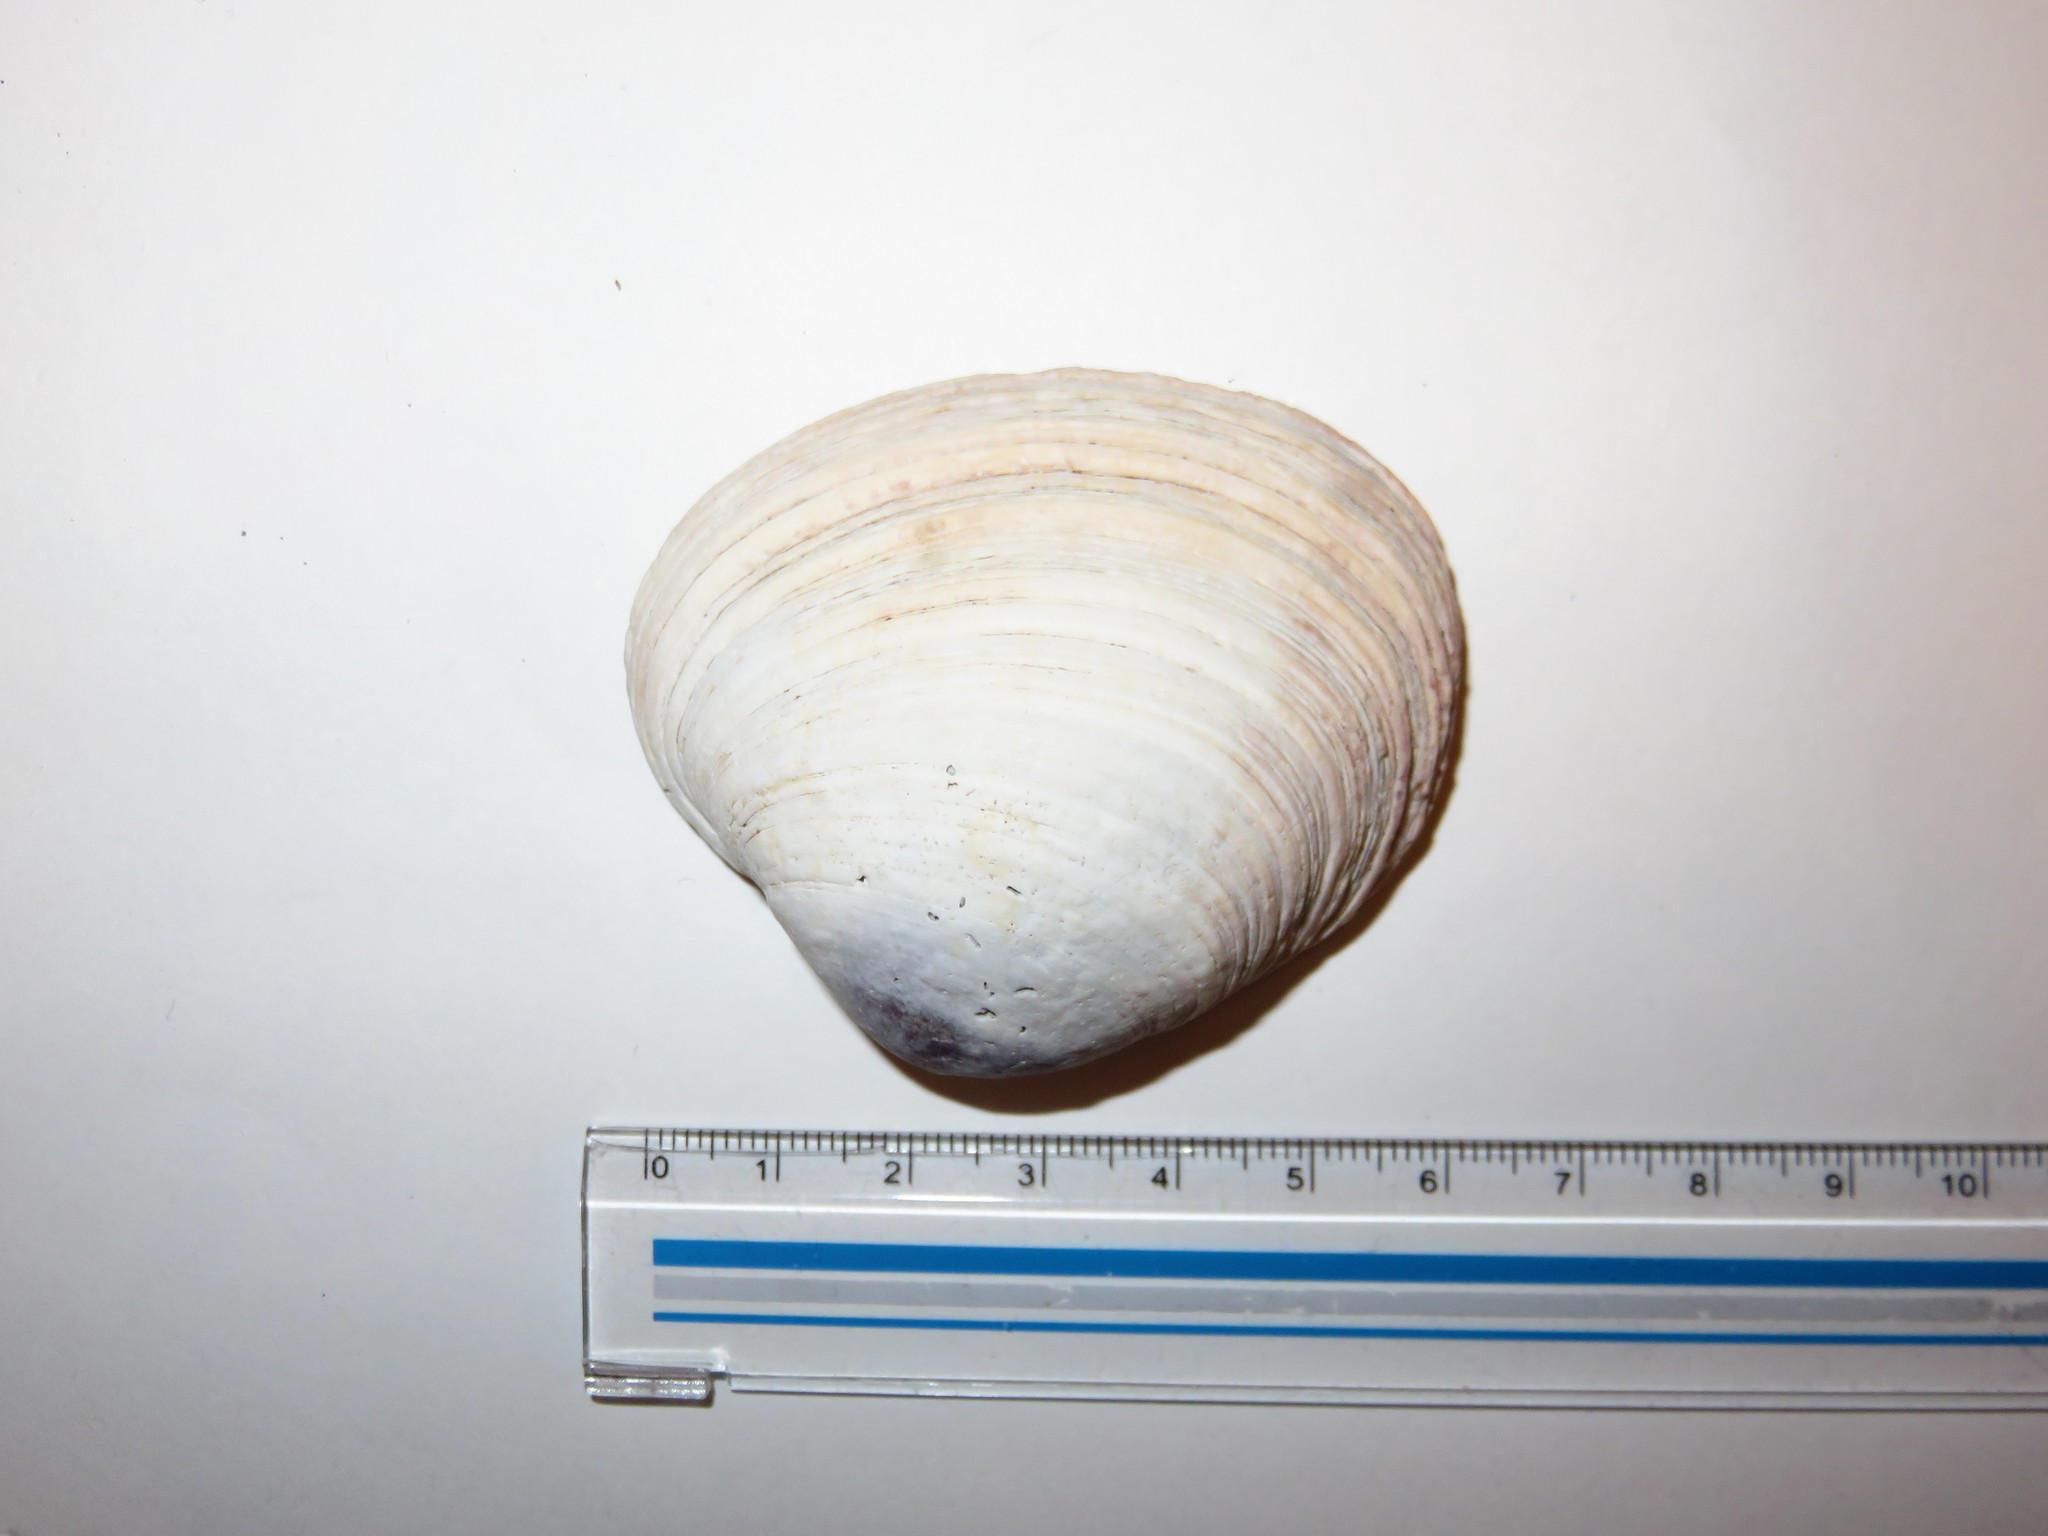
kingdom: Animalia
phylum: Mollusca
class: Bivalvia
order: Venerida
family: Veneridae
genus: Saxidomus
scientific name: Saxidomus purpurata
